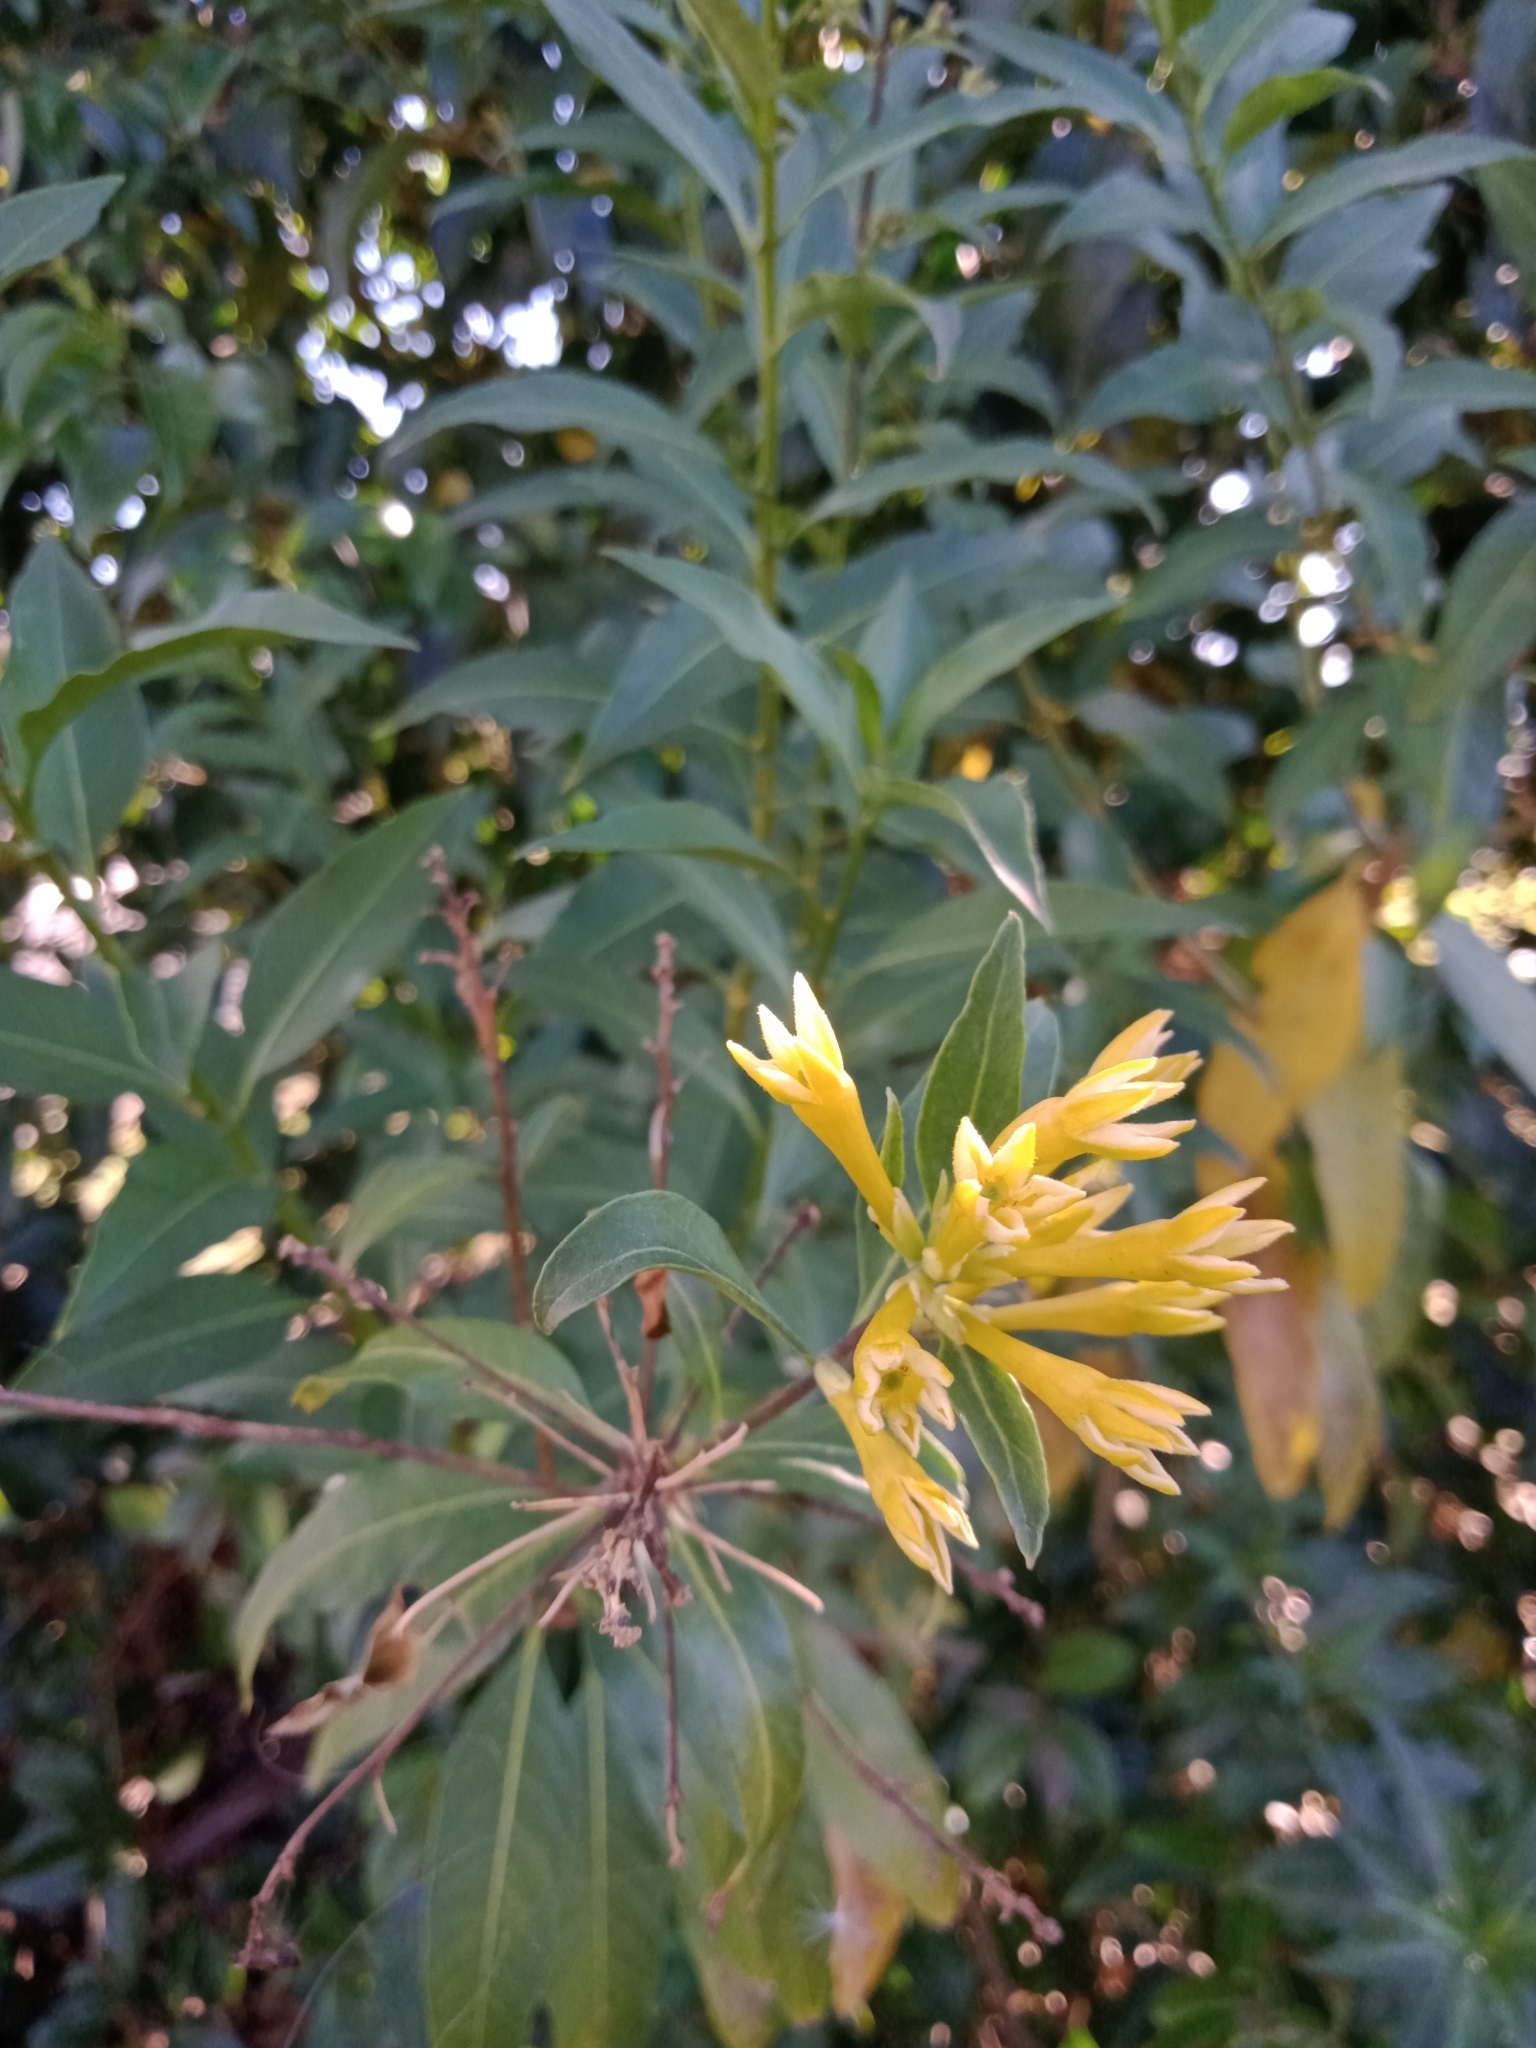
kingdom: Plantae
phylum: Tracheophyta
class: Magnoliopsida
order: Solanales
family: Solanaceae
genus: Cestrum
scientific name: Cestrum parqui
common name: Chilean cestrum
